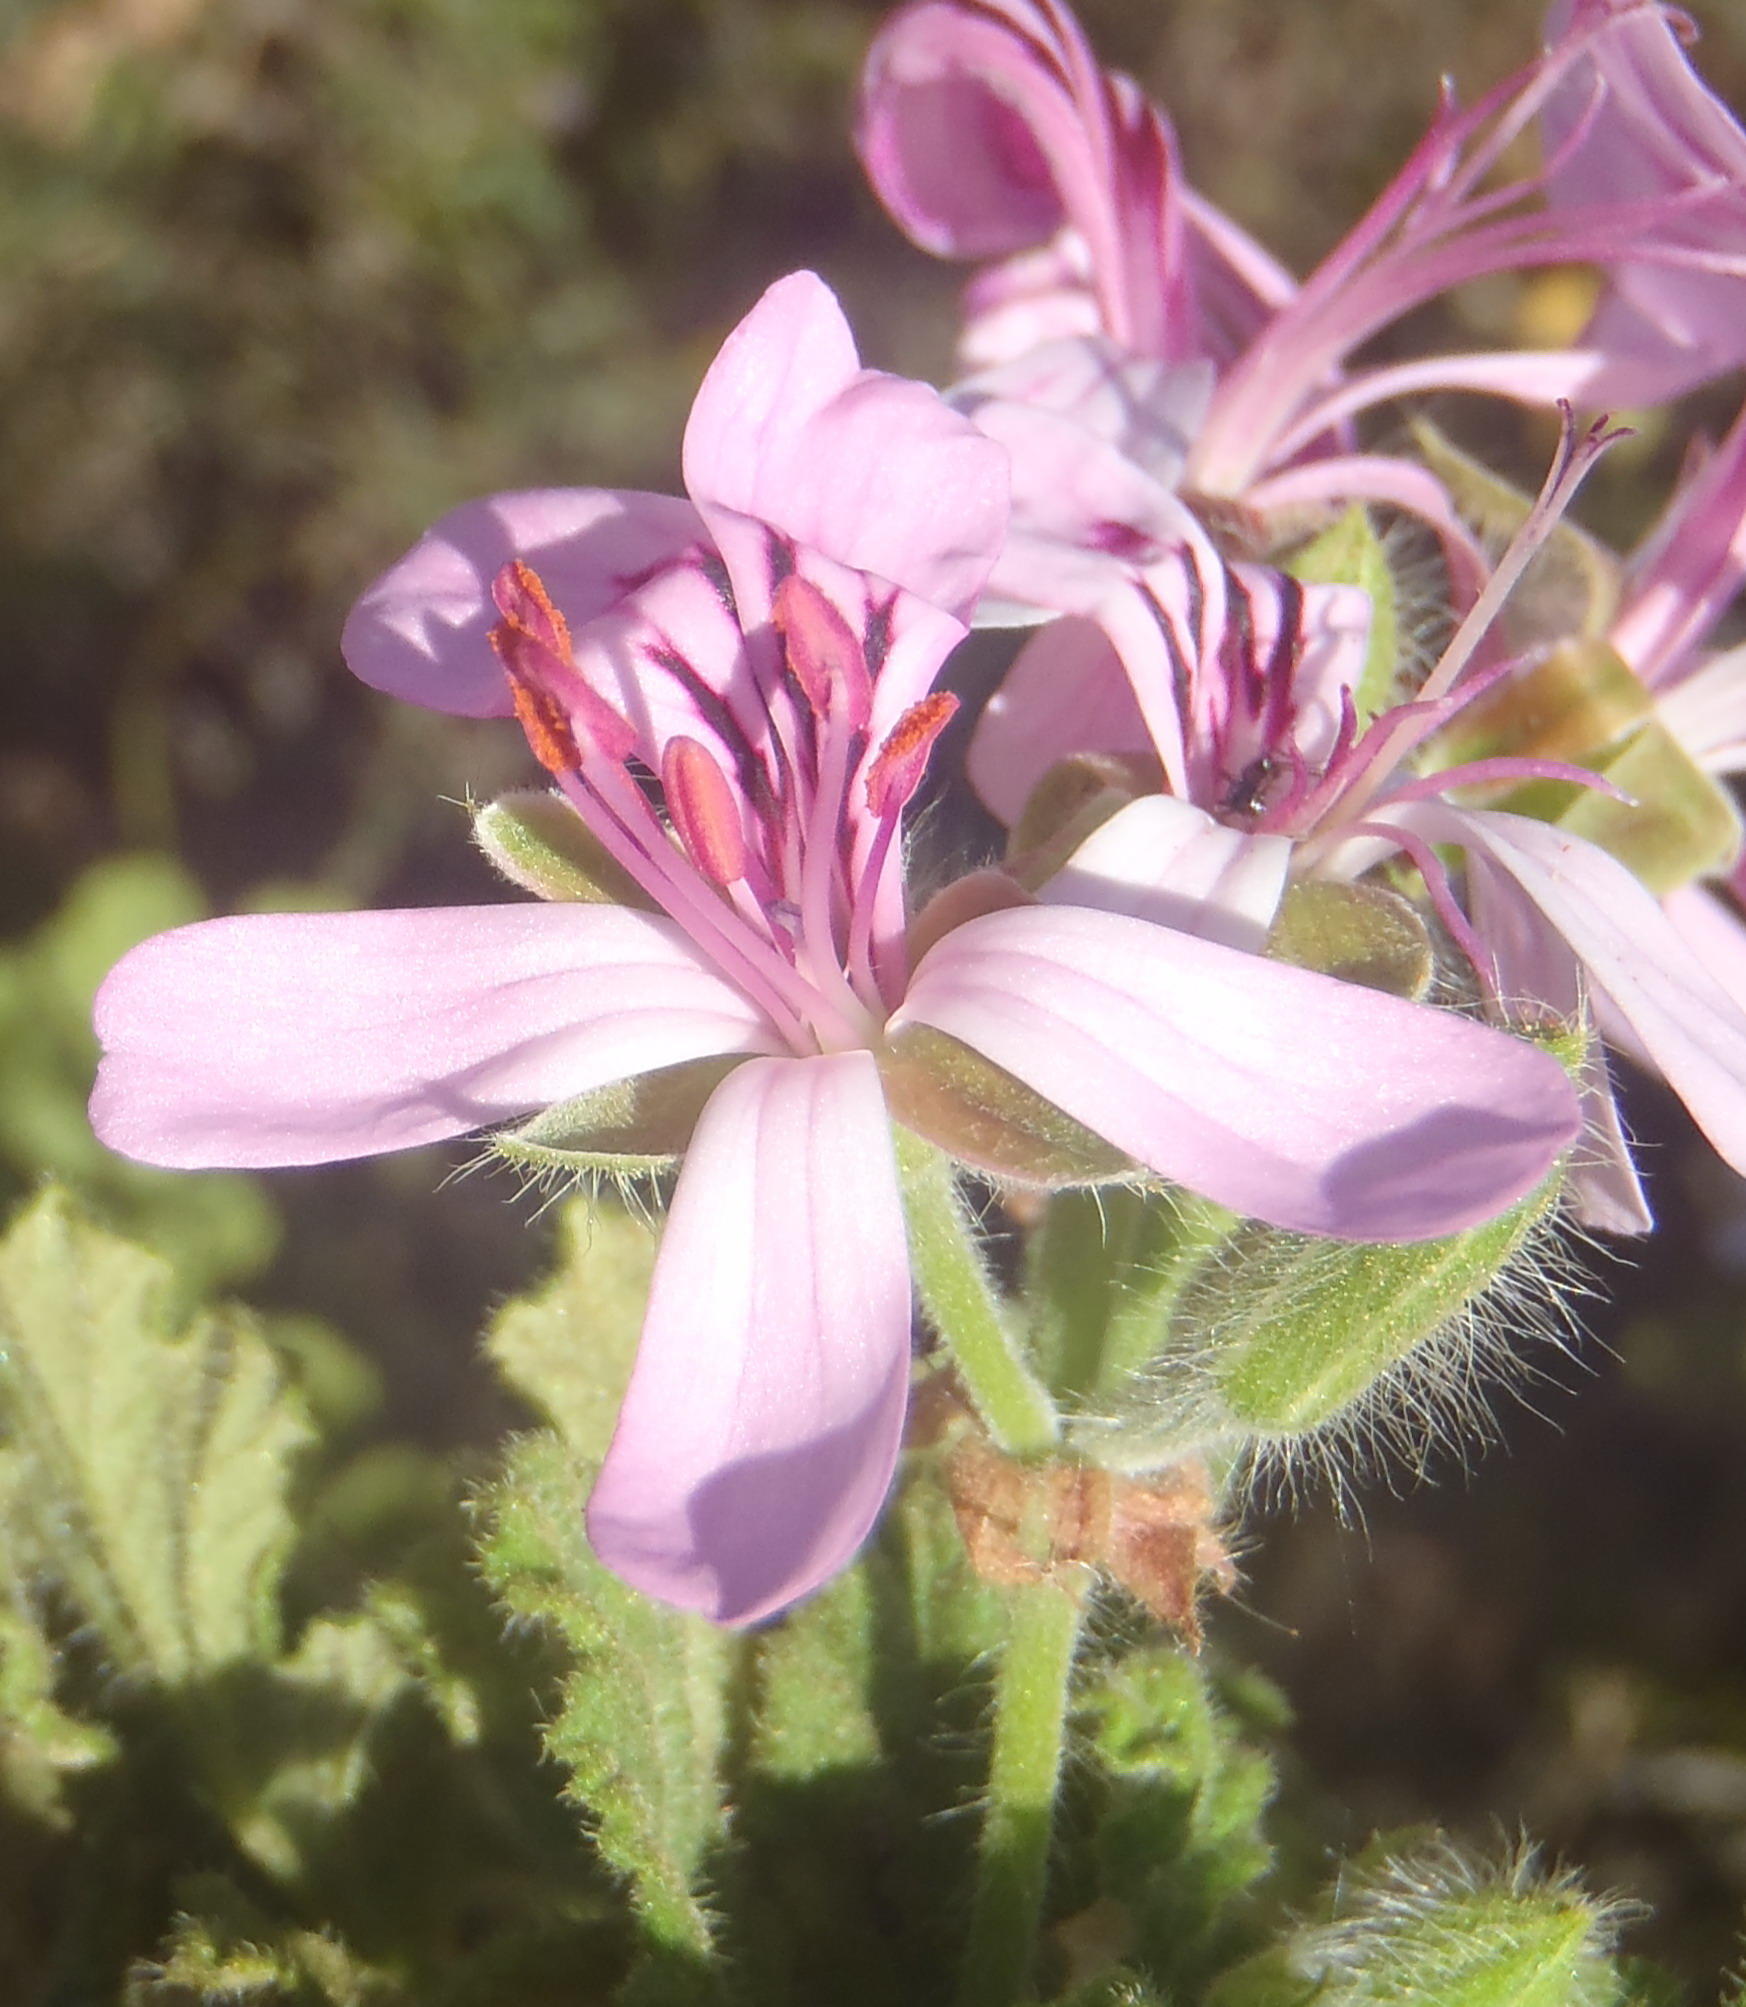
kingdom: Plantae
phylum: Tracheophyta
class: Magnoliopsida
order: Geraniales
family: Geraniaceae
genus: Pelargonium
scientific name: Pelargonium panduriforme
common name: Oakleaf garden geranium
